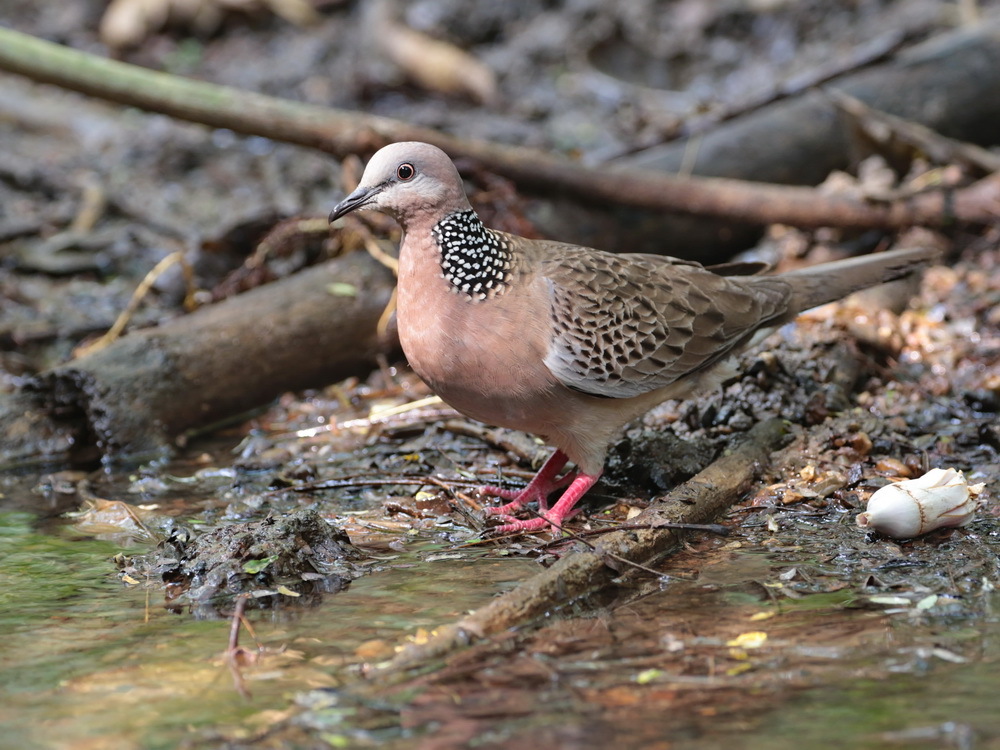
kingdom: Animalia
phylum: Chordata
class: Aves
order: Columbiformes
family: Columbidae
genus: Spilopelia
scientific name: Spilopelia chinensis
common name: Spotted dove
